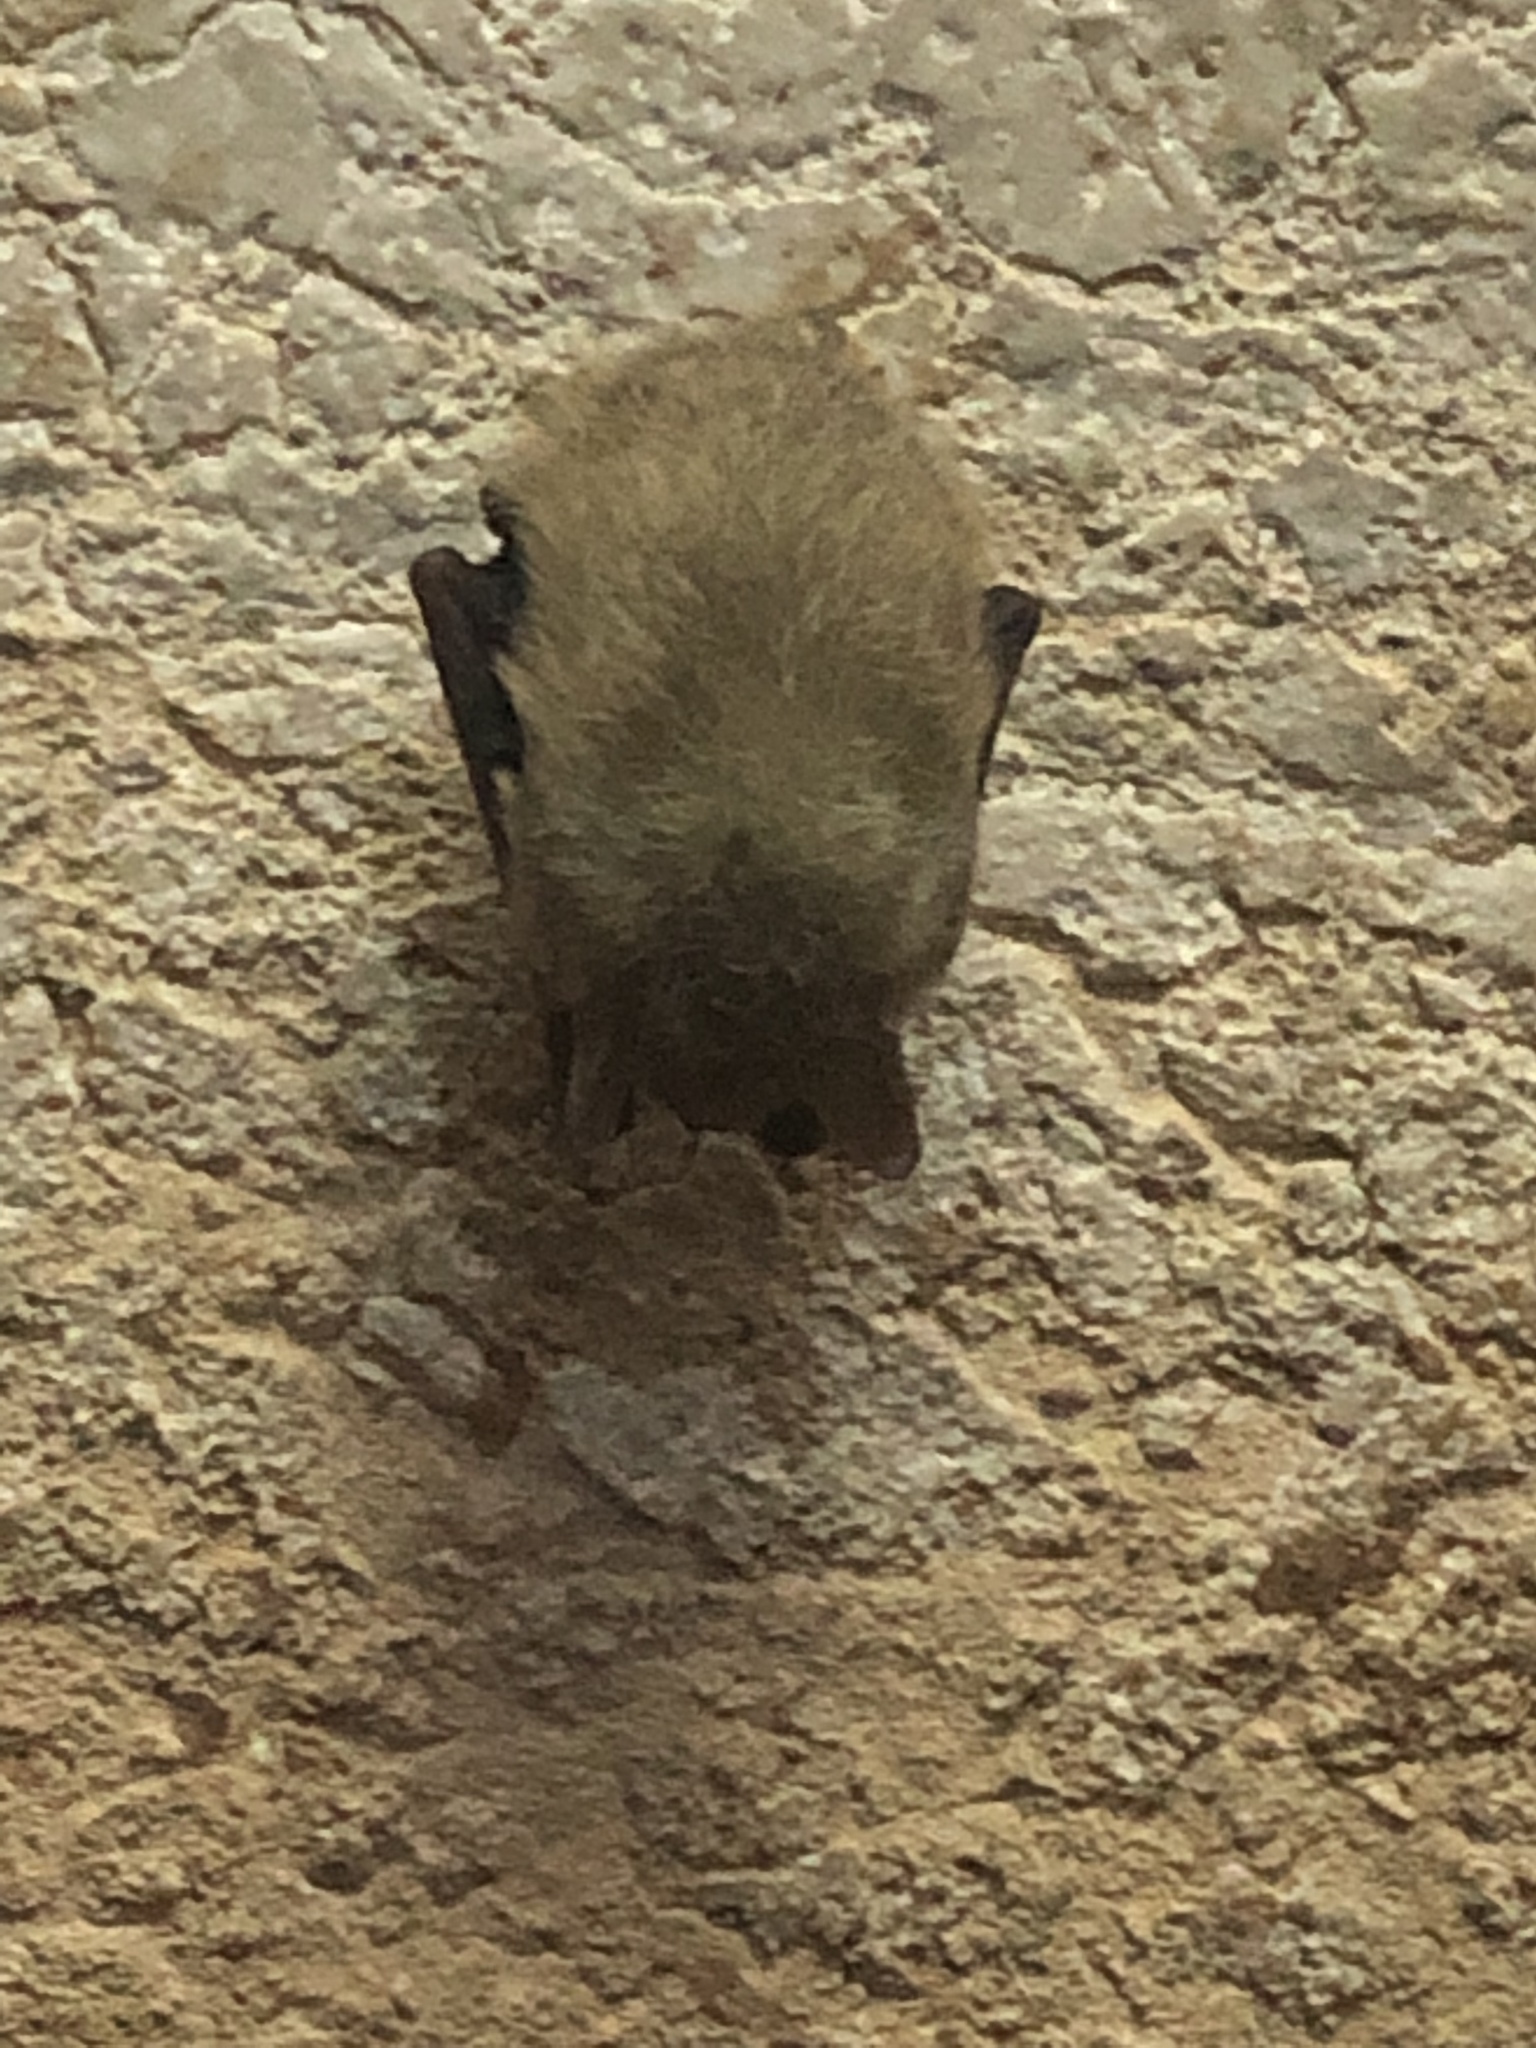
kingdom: Animalia
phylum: Chordata
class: Mammalia
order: Chiroptera
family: Vespertilionidae
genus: Perimyotis
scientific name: Perimyotis subflavus
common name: Eastern pipistrelle
